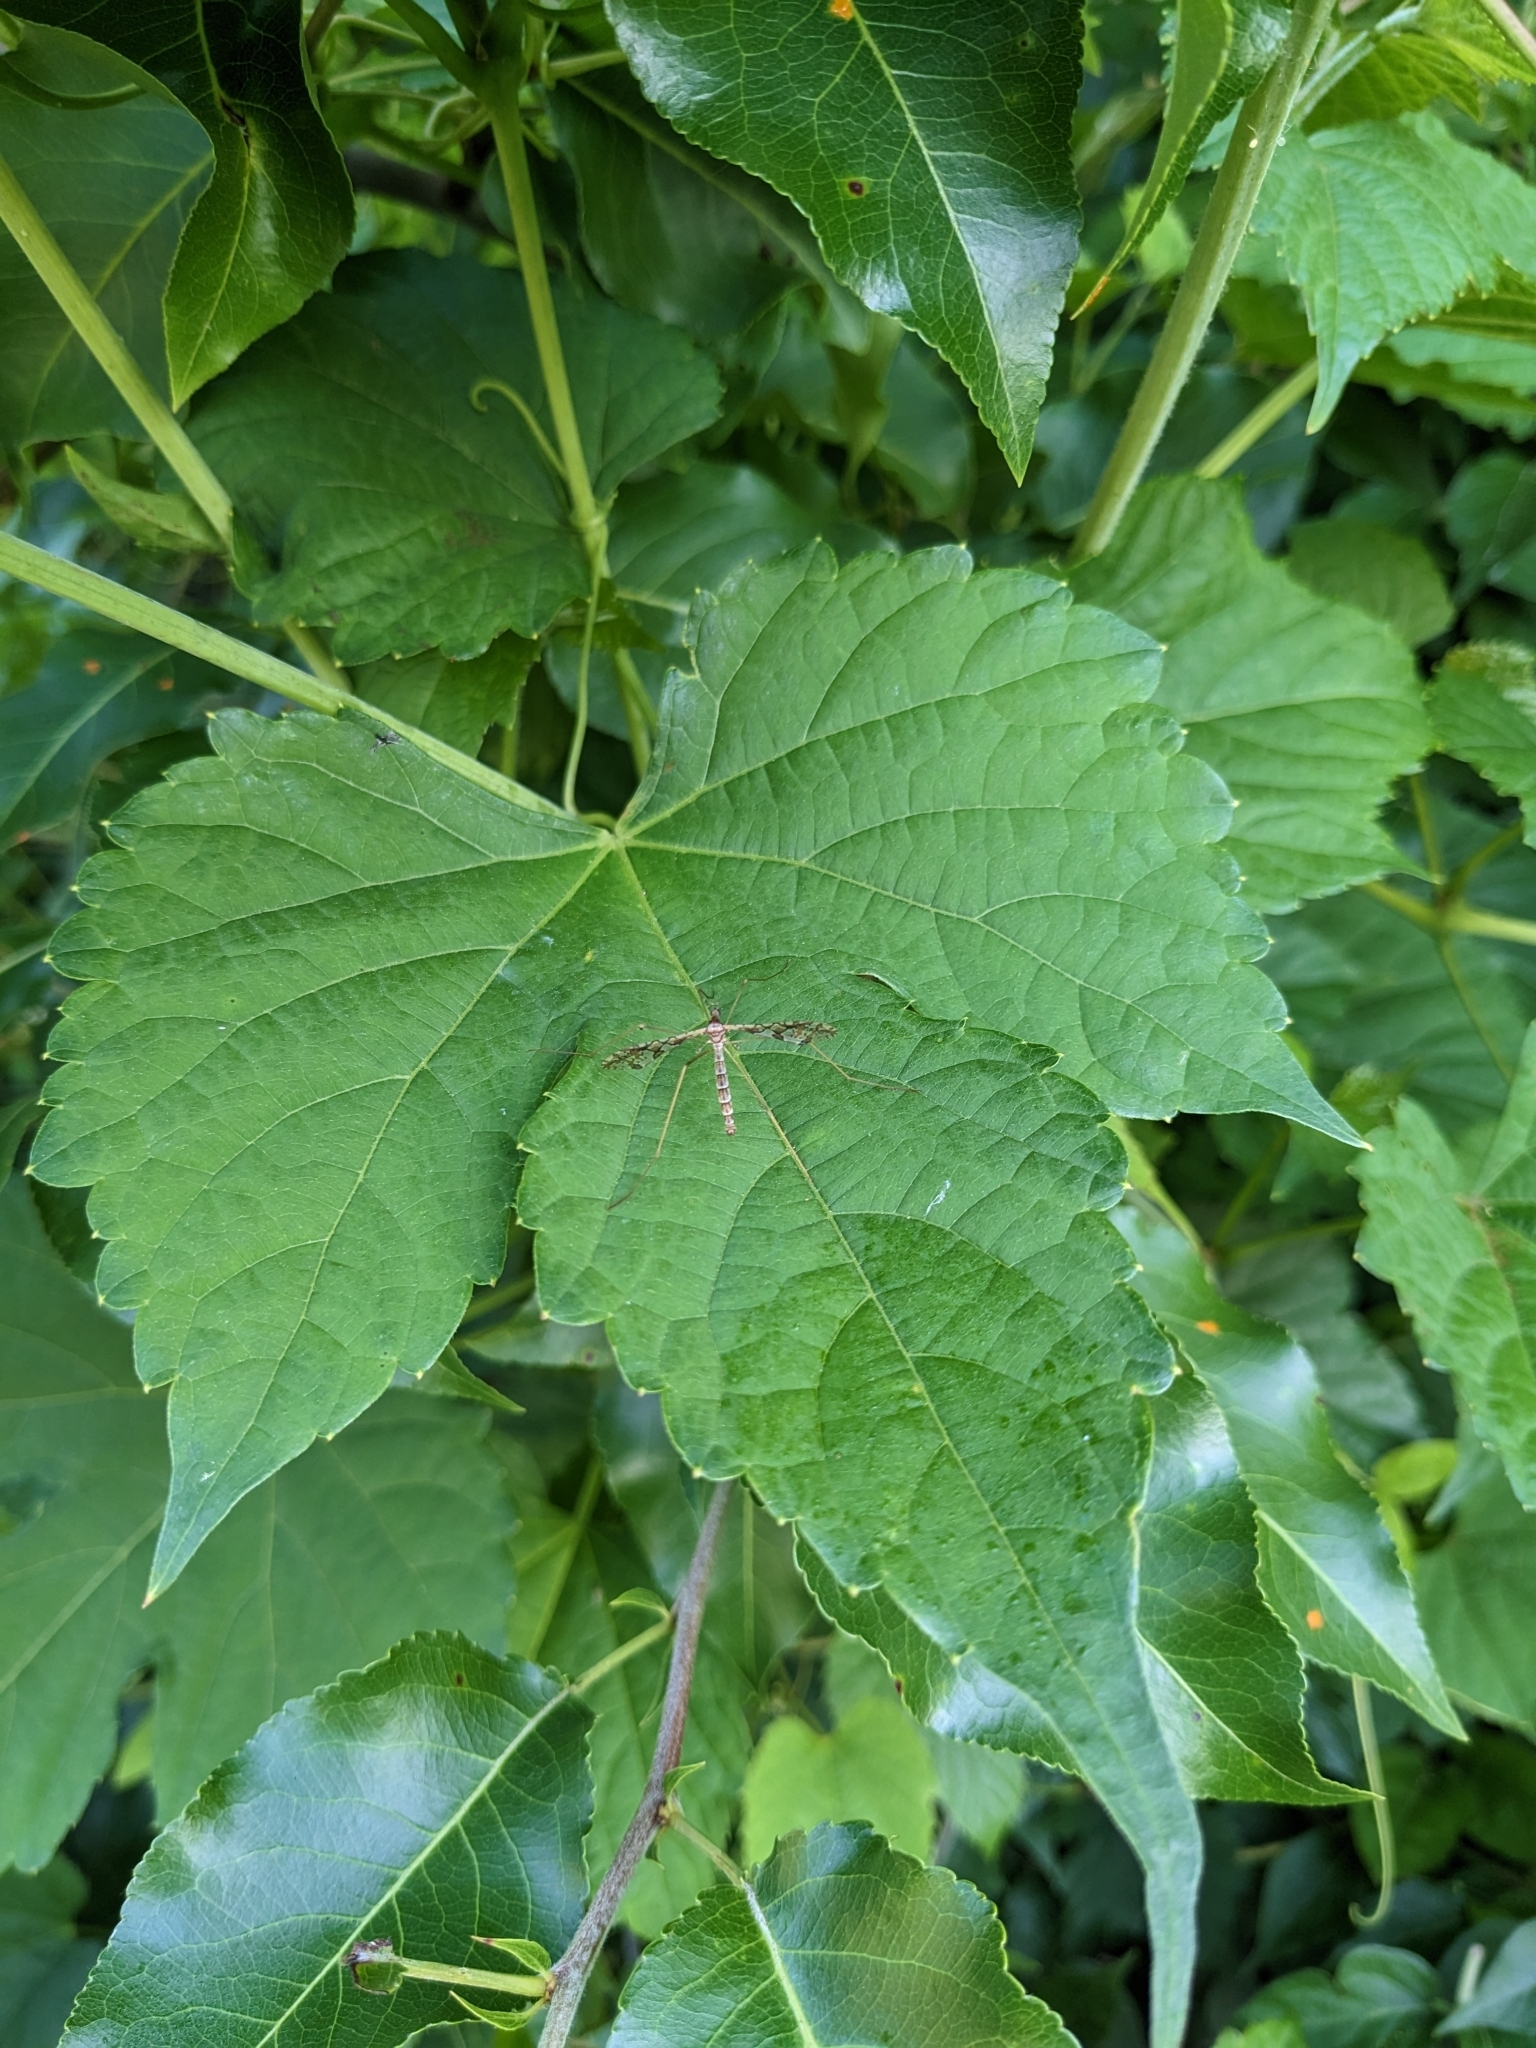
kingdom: Animalia
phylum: Arthropoda
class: Insecta
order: Diptera
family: Limoniidae
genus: Epiphragma
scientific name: Epiphragma solatrix
